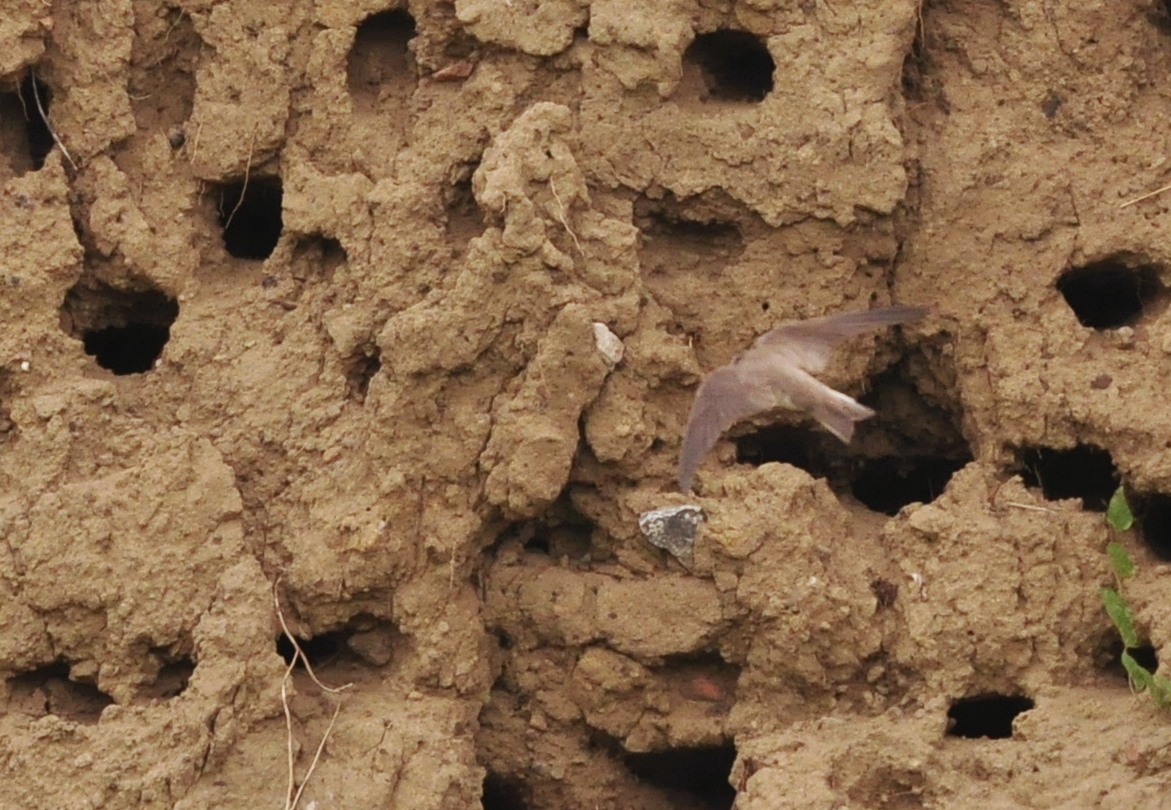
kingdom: Animalia
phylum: Chordata
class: Aves
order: Passeriformes
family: Hirundinidae
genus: Riparia
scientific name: Riparia riparia
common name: Sand martin
